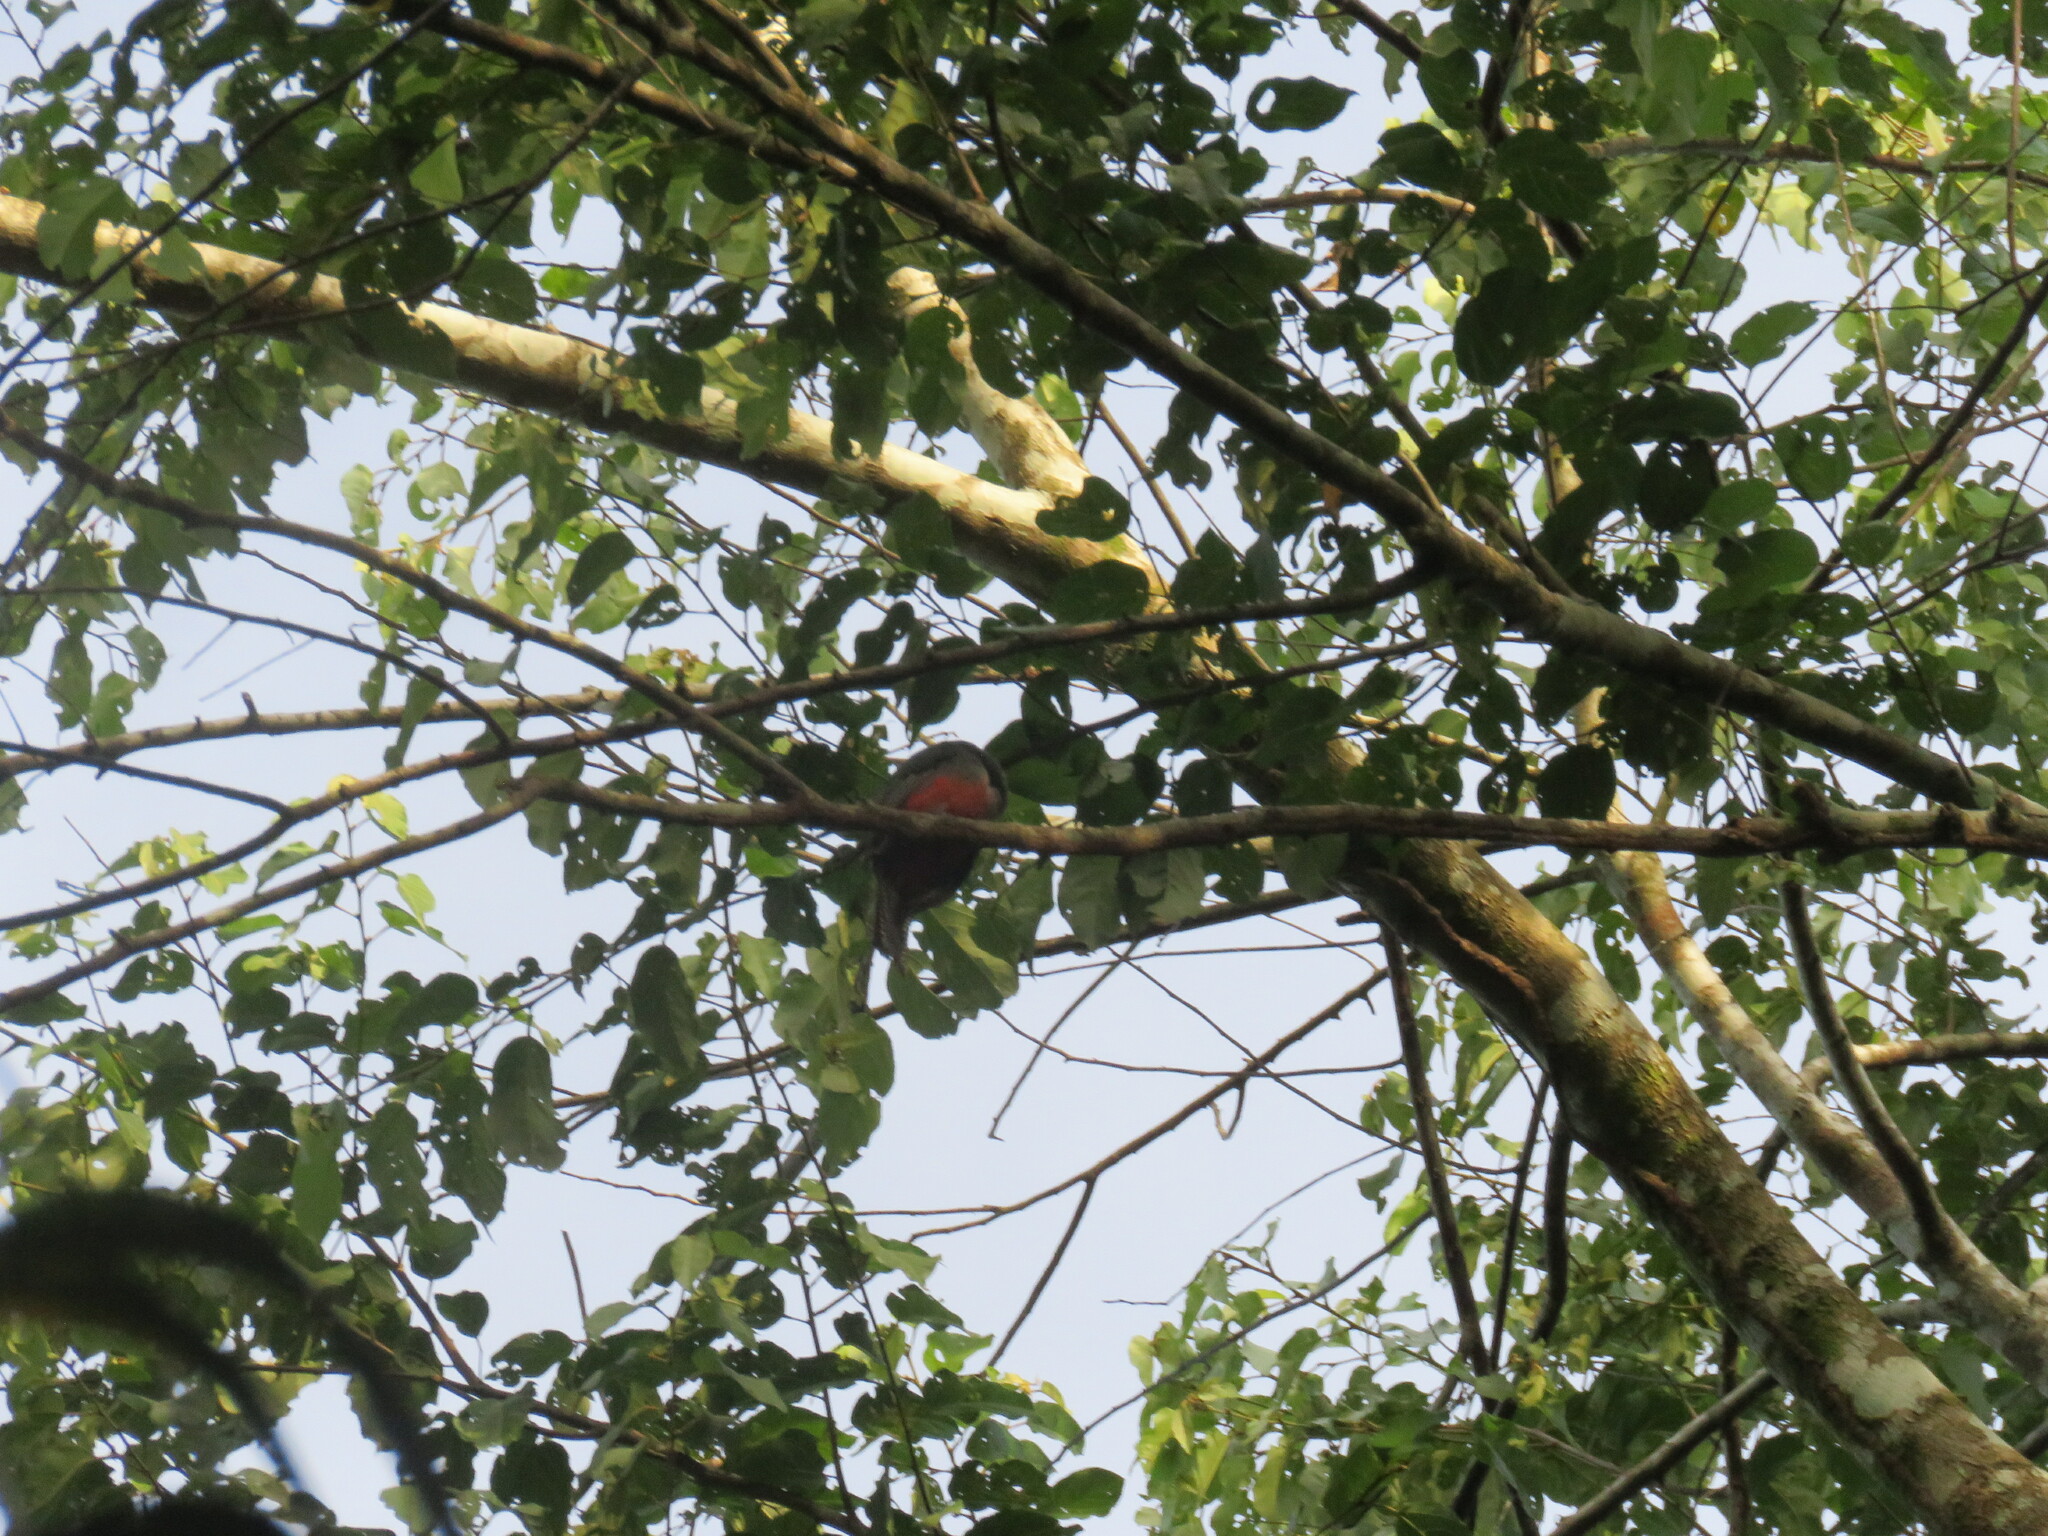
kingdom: Animalia
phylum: Chordata
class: Aves
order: Trogoniformes
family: Trogonidae
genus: Trogon
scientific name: Trogon melanurus
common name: Black-tailed trogon
